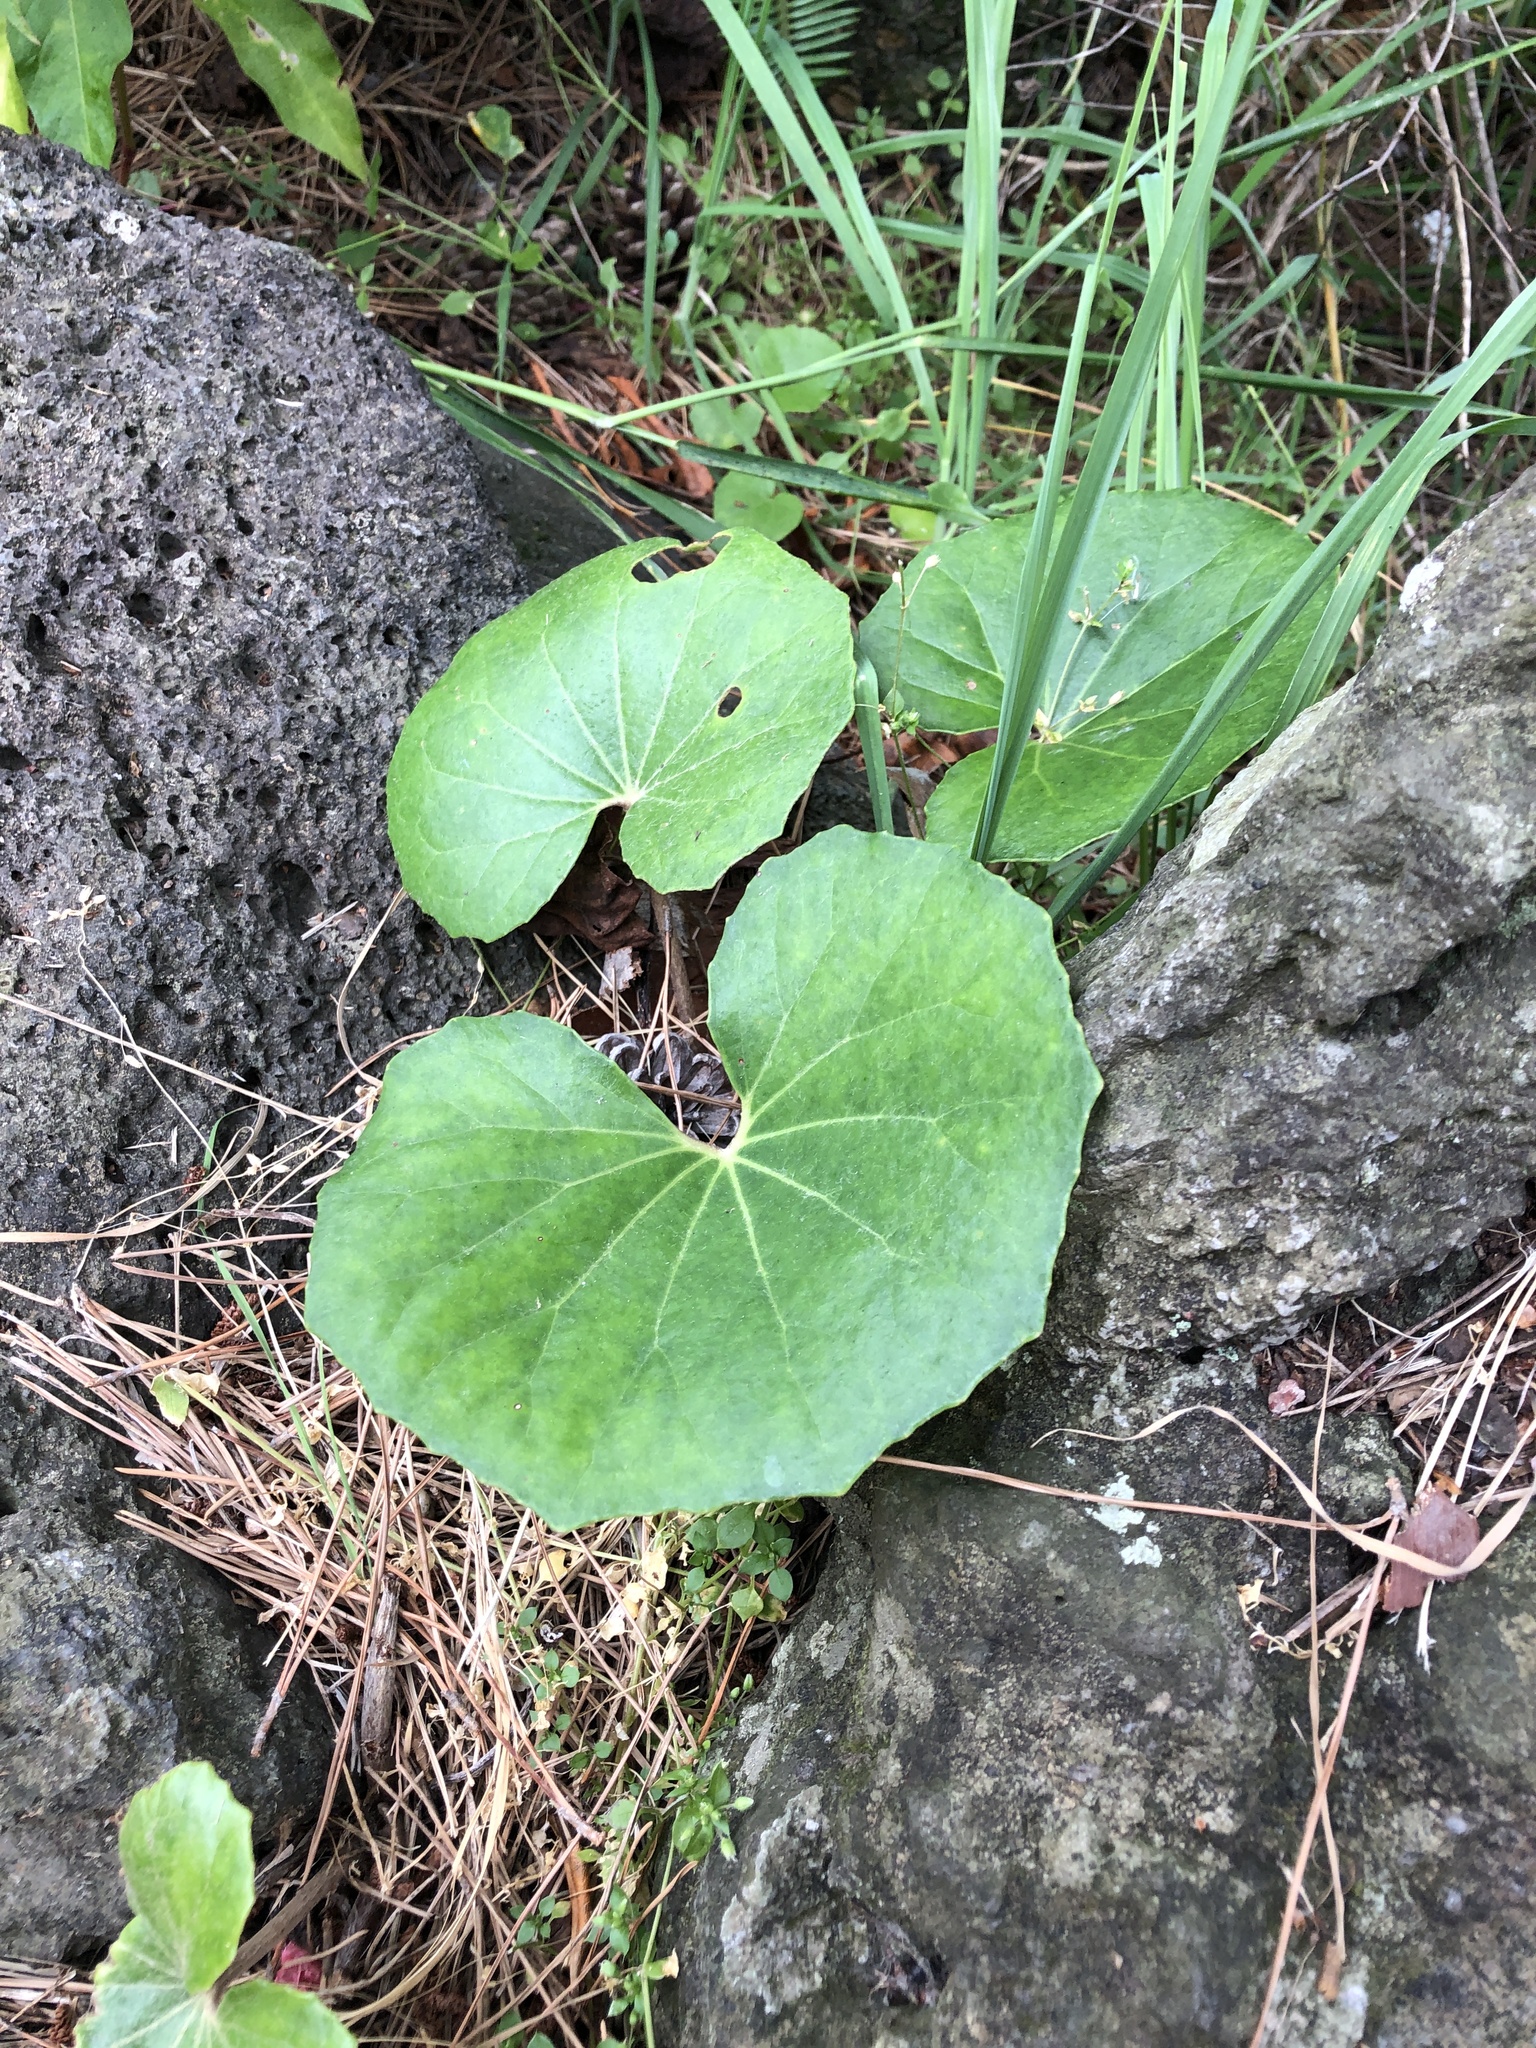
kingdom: Plantae
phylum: Tracheophyta
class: Magnoliopsida
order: Asterales
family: Asteraceae
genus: Farfugium
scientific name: Farfugium japonicum
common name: Leopardplant
